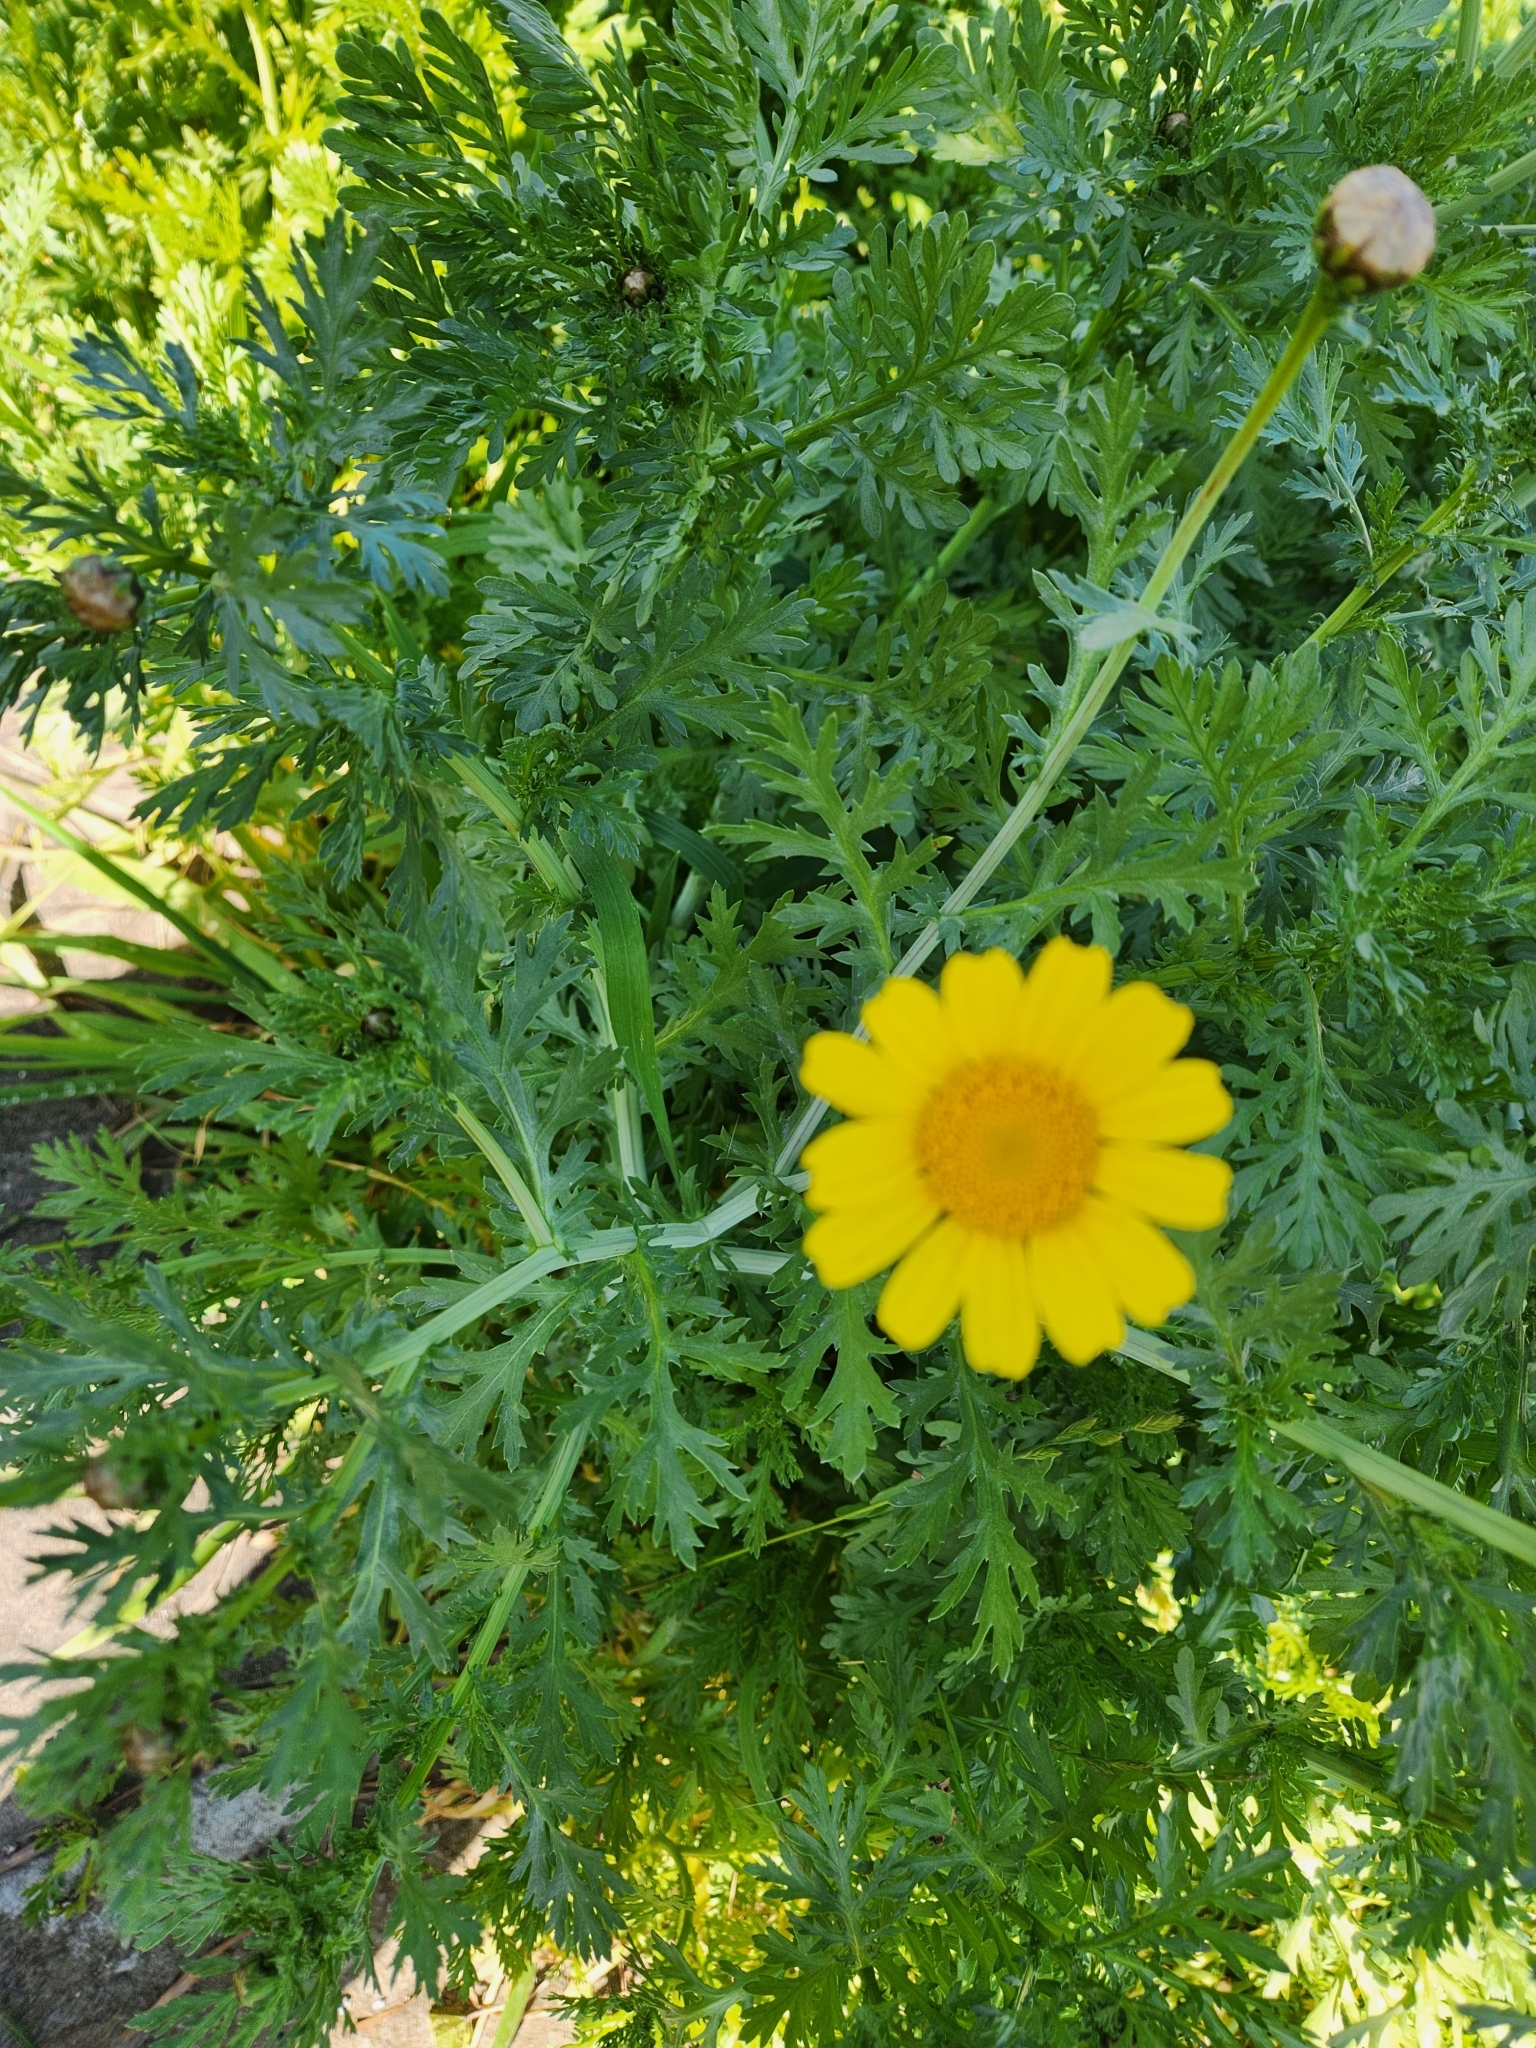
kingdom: Plantae
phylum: Tracheophyta
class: Magnoliopsida
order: Asterales
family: Asteraceae
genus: Glebionis
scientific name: Glebionis coronaria
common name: Crowndaisy
